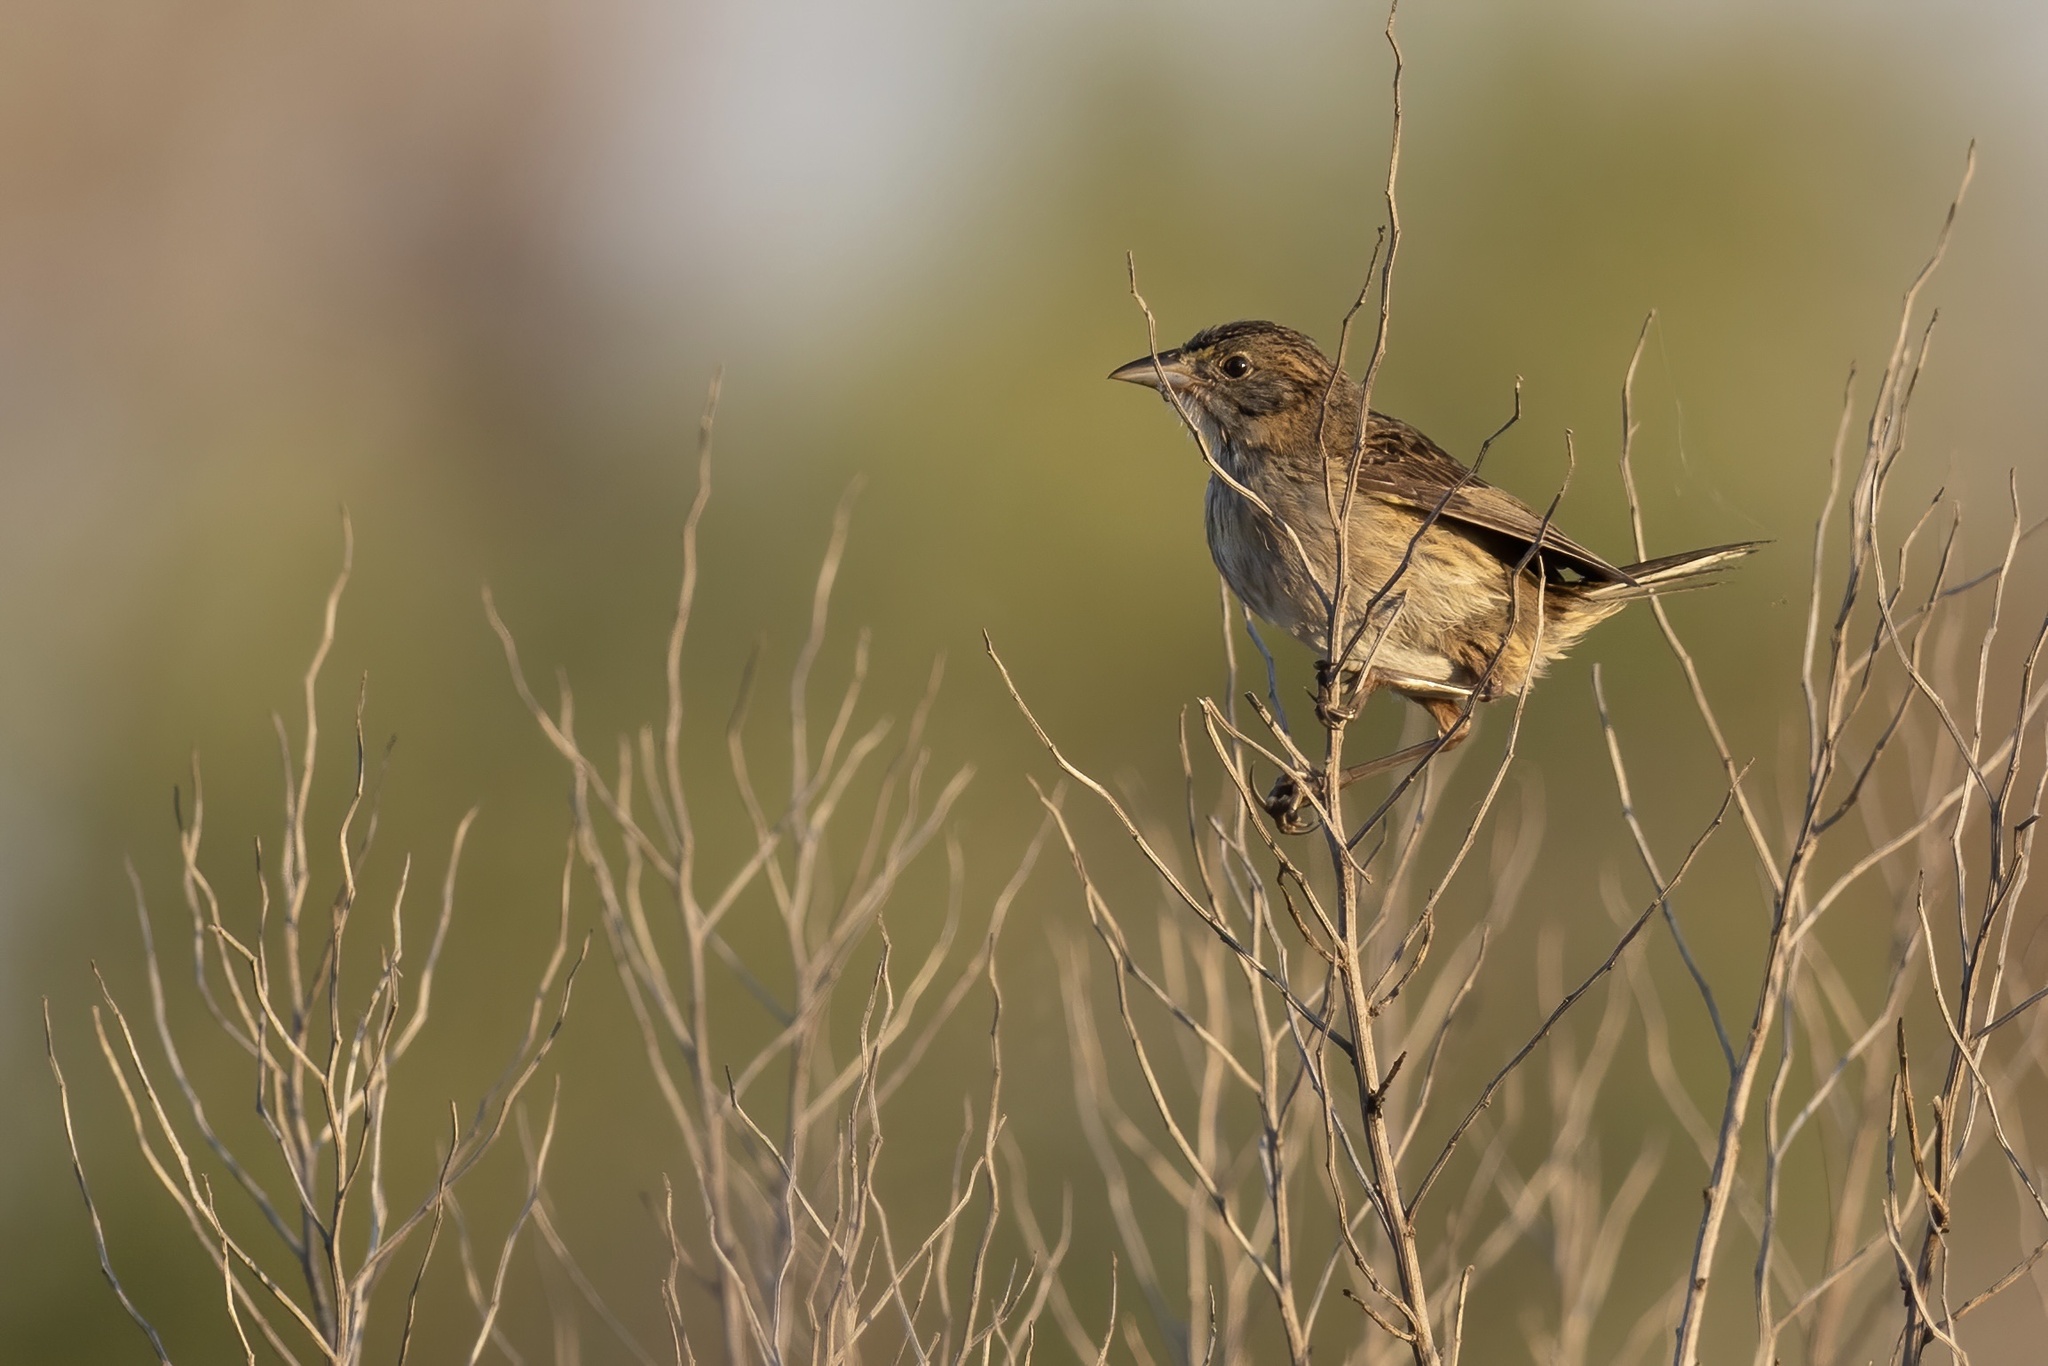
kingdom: Animalia
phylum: Chordata
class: Aves
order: Passeriformes
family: Passerellidae
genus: Ammospiza
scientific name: Ammospiza maritima
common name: Seaside sparrow
